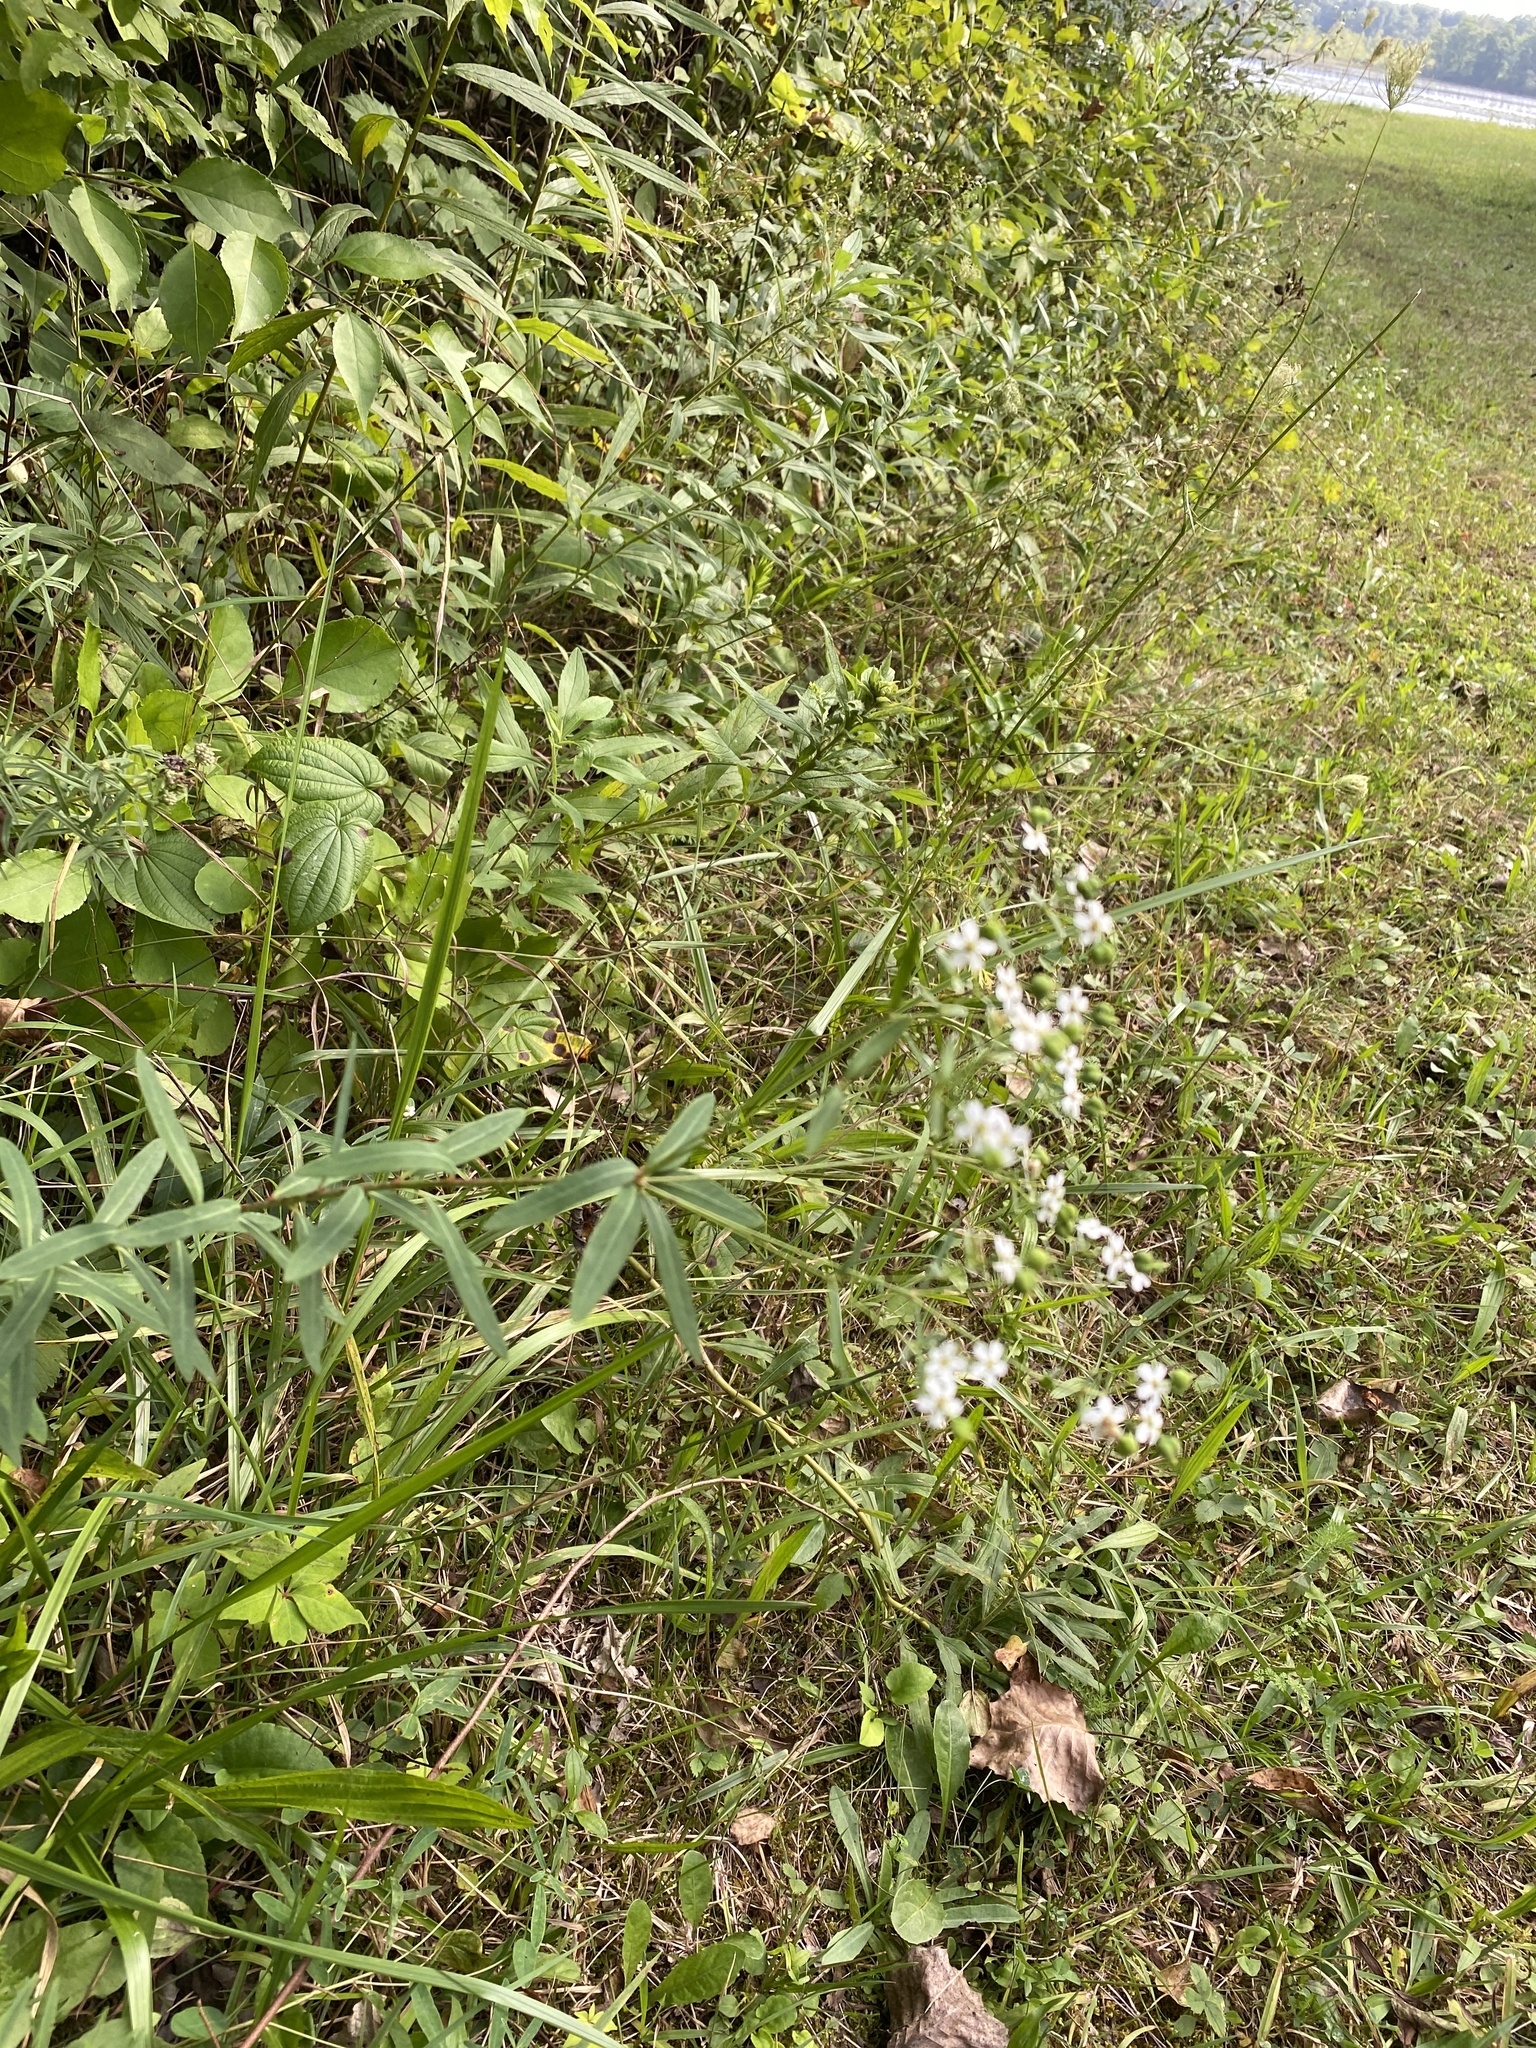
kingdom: Plantae
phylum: Tracheophyta
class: Magnoliopsida
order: Malpighiales
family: Euphorbiaceae
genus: Euphorbia
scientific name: Euphorbia corollata
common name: Flowering spurge
